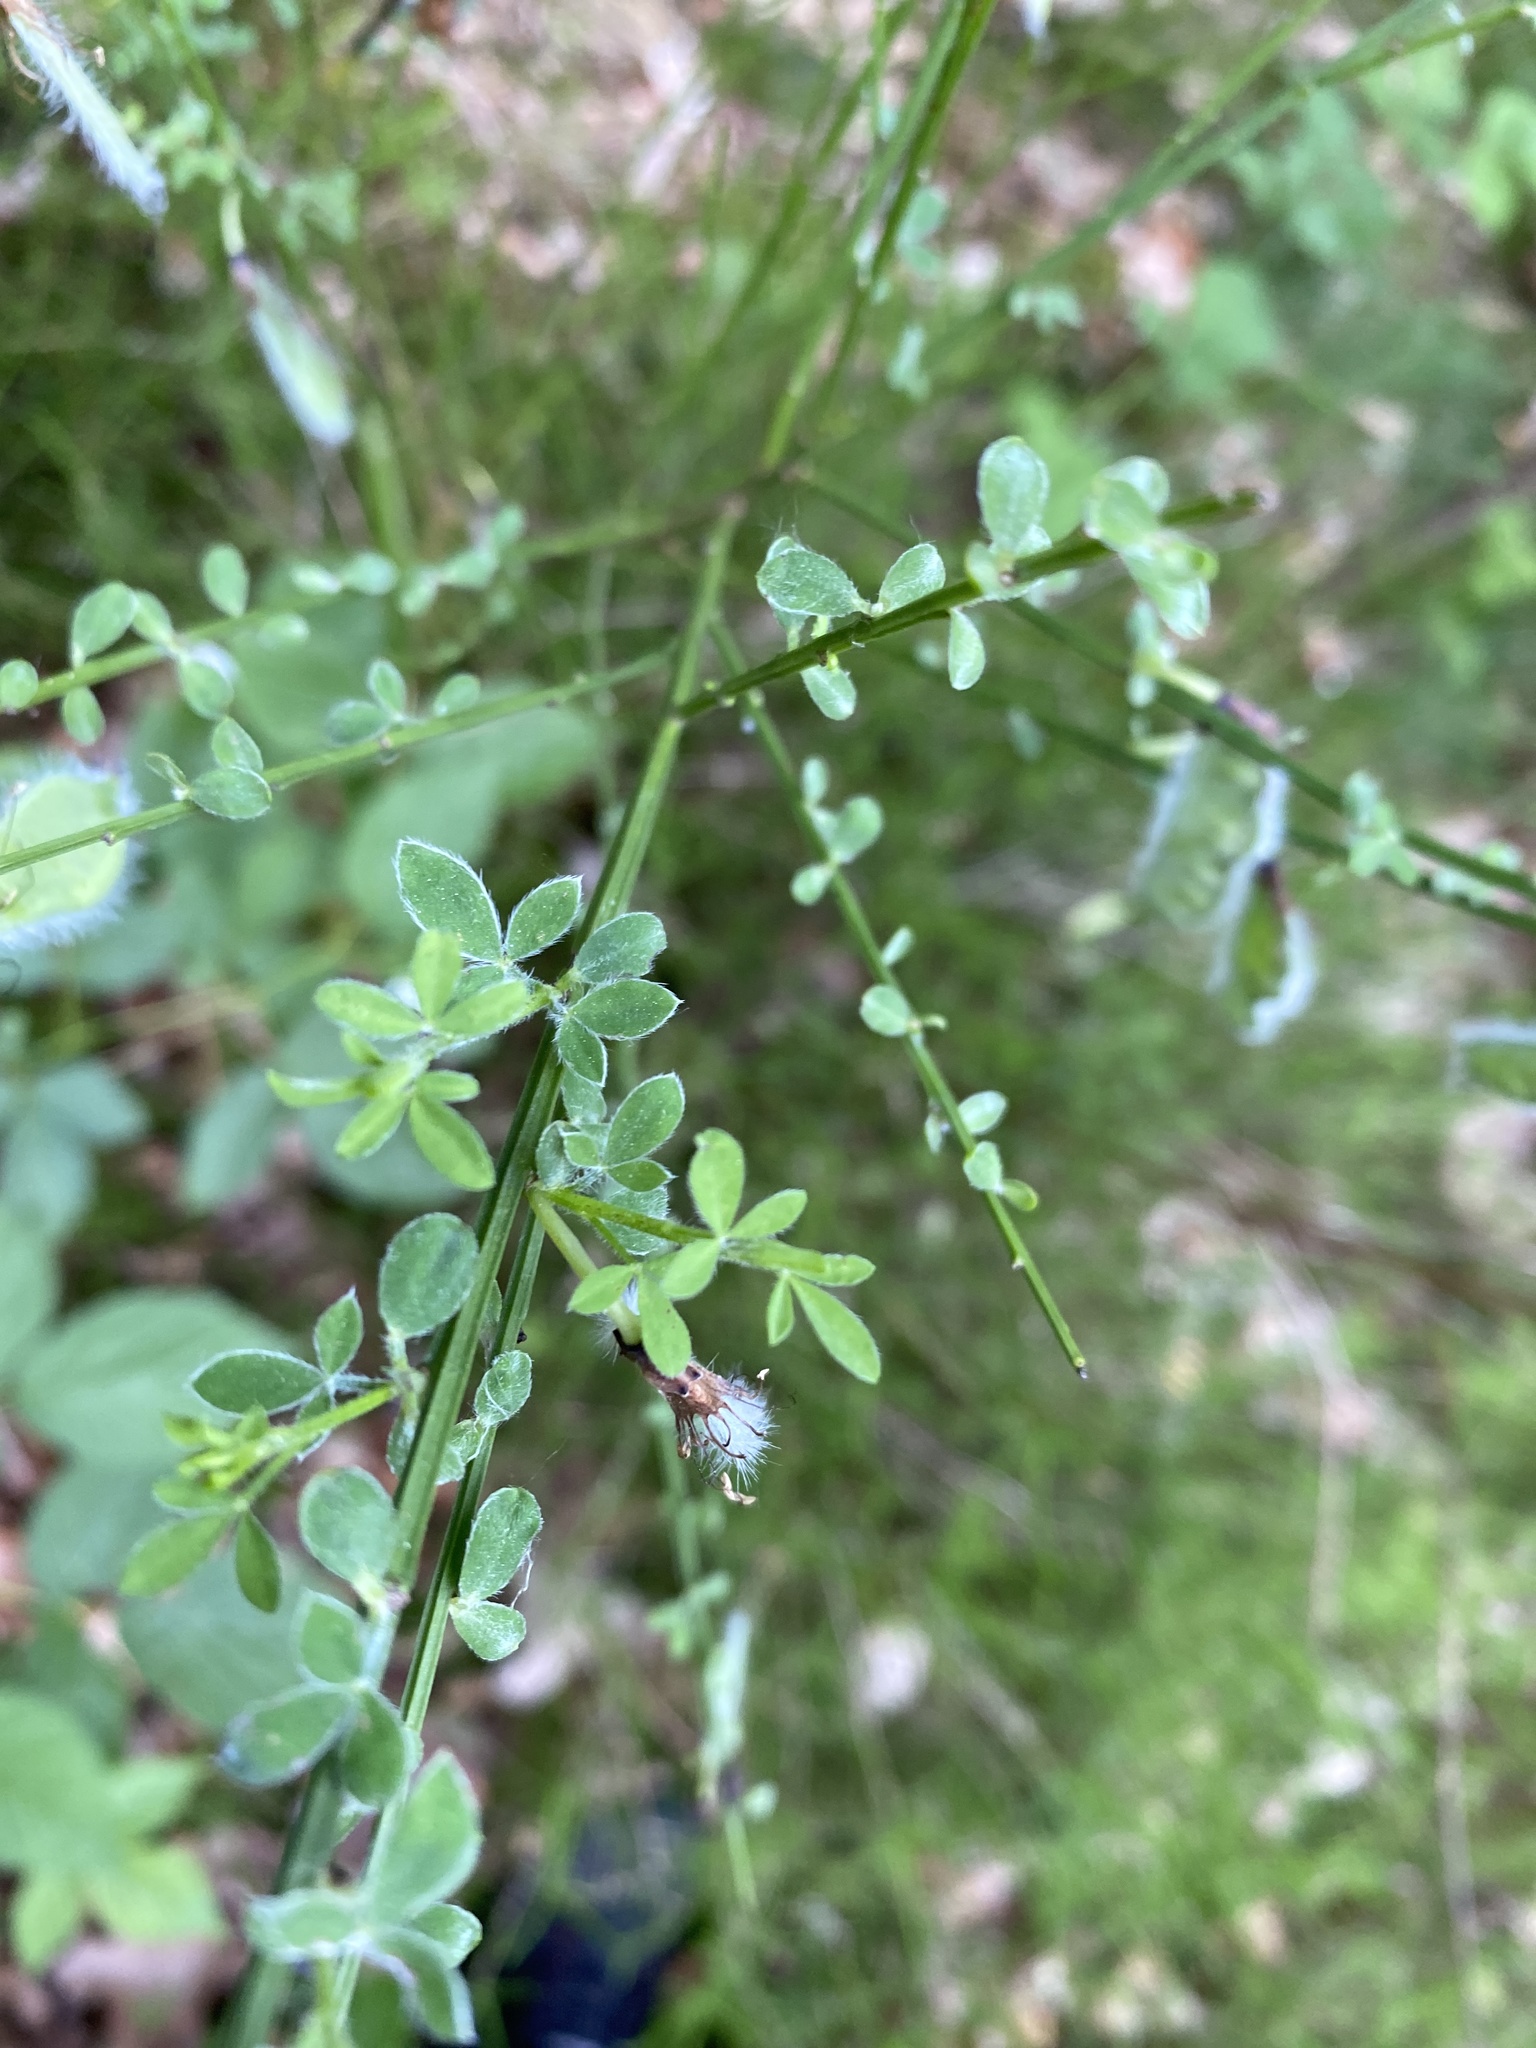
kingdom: Plantae
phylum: Tracheophyta
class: Magnoliopsida
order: Fabales
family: Fabaceae
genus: Cytisus
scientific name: Cytisus scoparius
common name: Scotch broom
